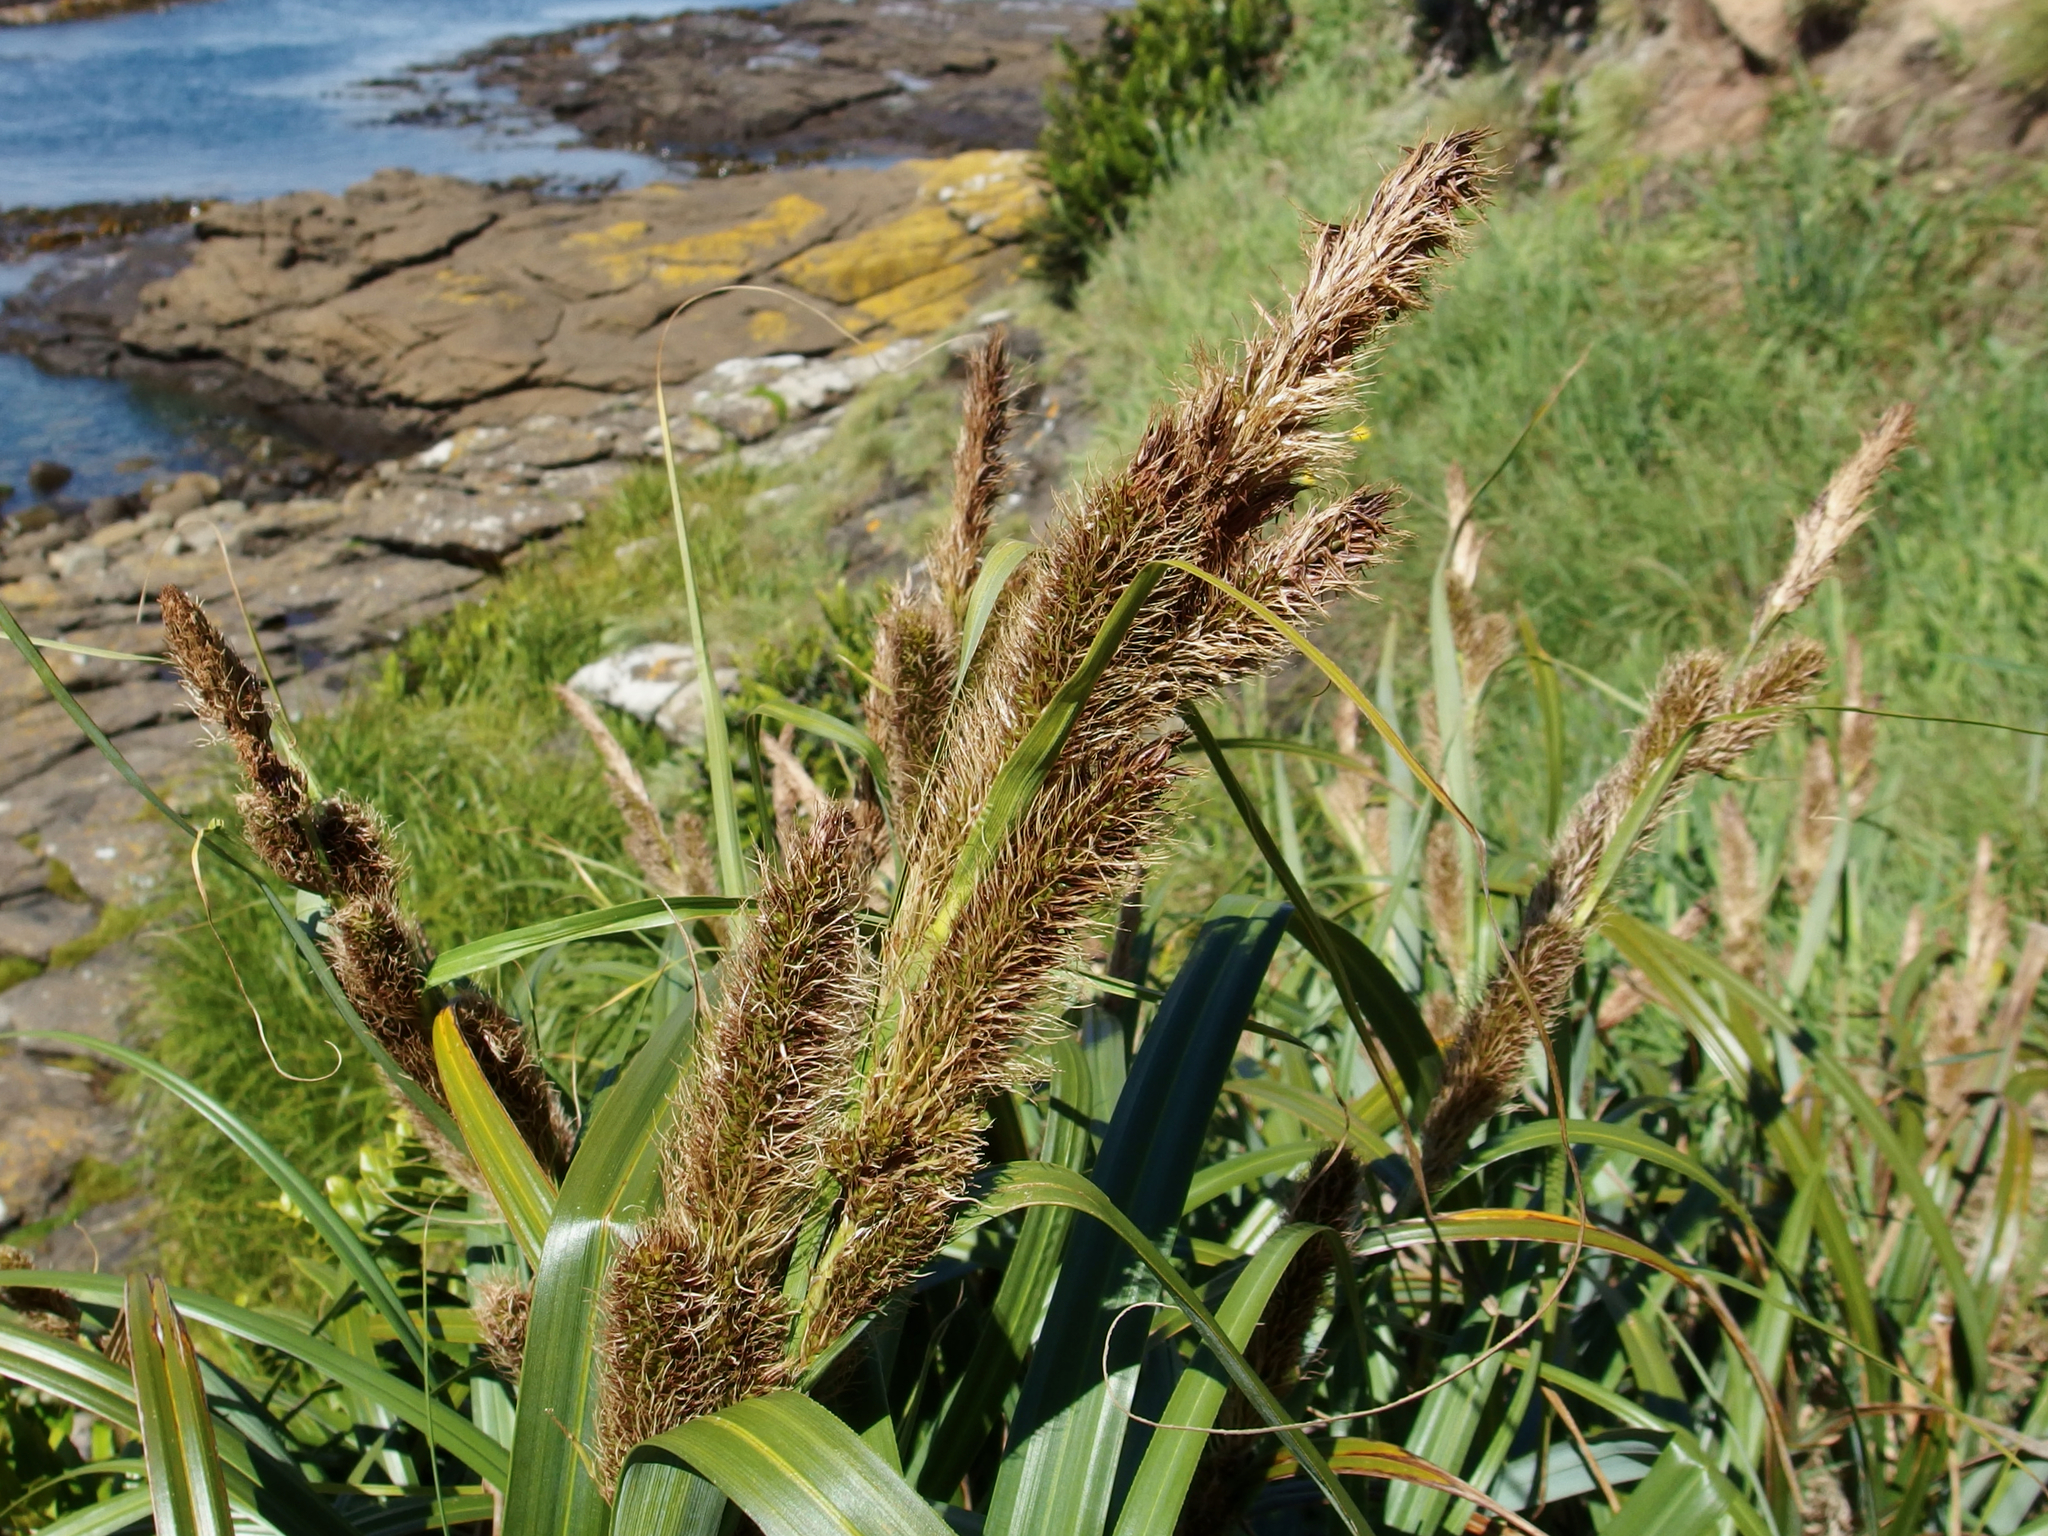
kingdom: Plantae
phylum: Tracheophyta
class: Liliopsida
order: Poales
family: Cyperaceae
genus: Carex
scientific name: Carex trifida
